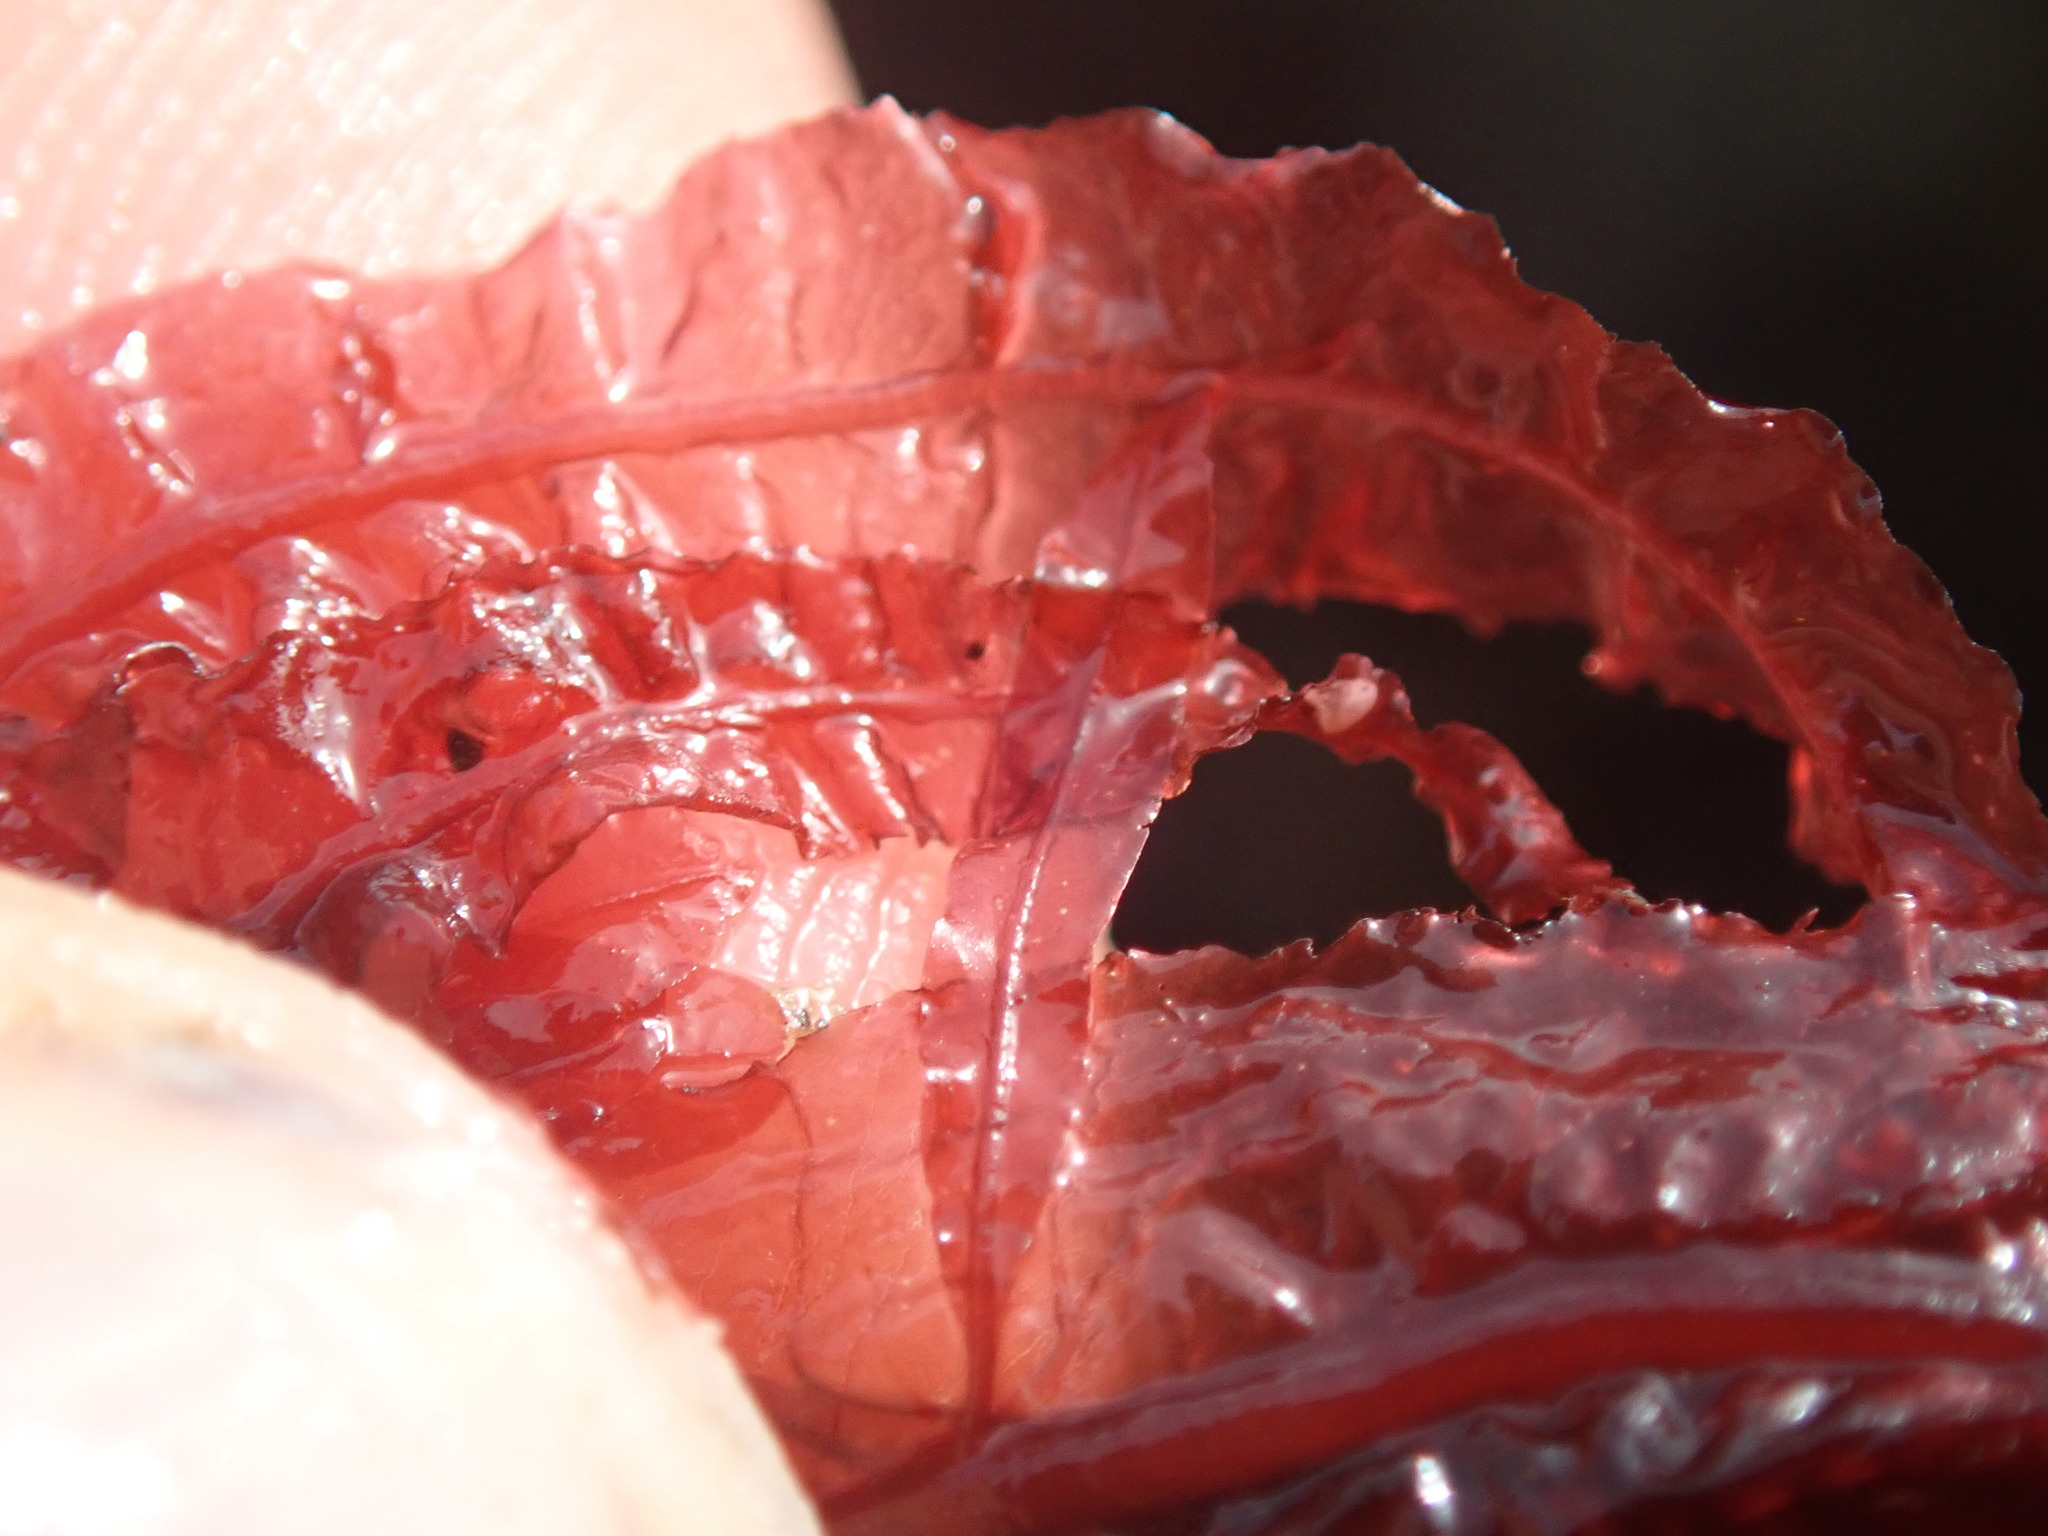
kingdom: Plantae
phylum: Rhodophyta
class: Florideophyceae
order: Ceramiales
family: Delesseriaceae
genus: Cumathamnion
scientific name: Cumathamnion decipiens
